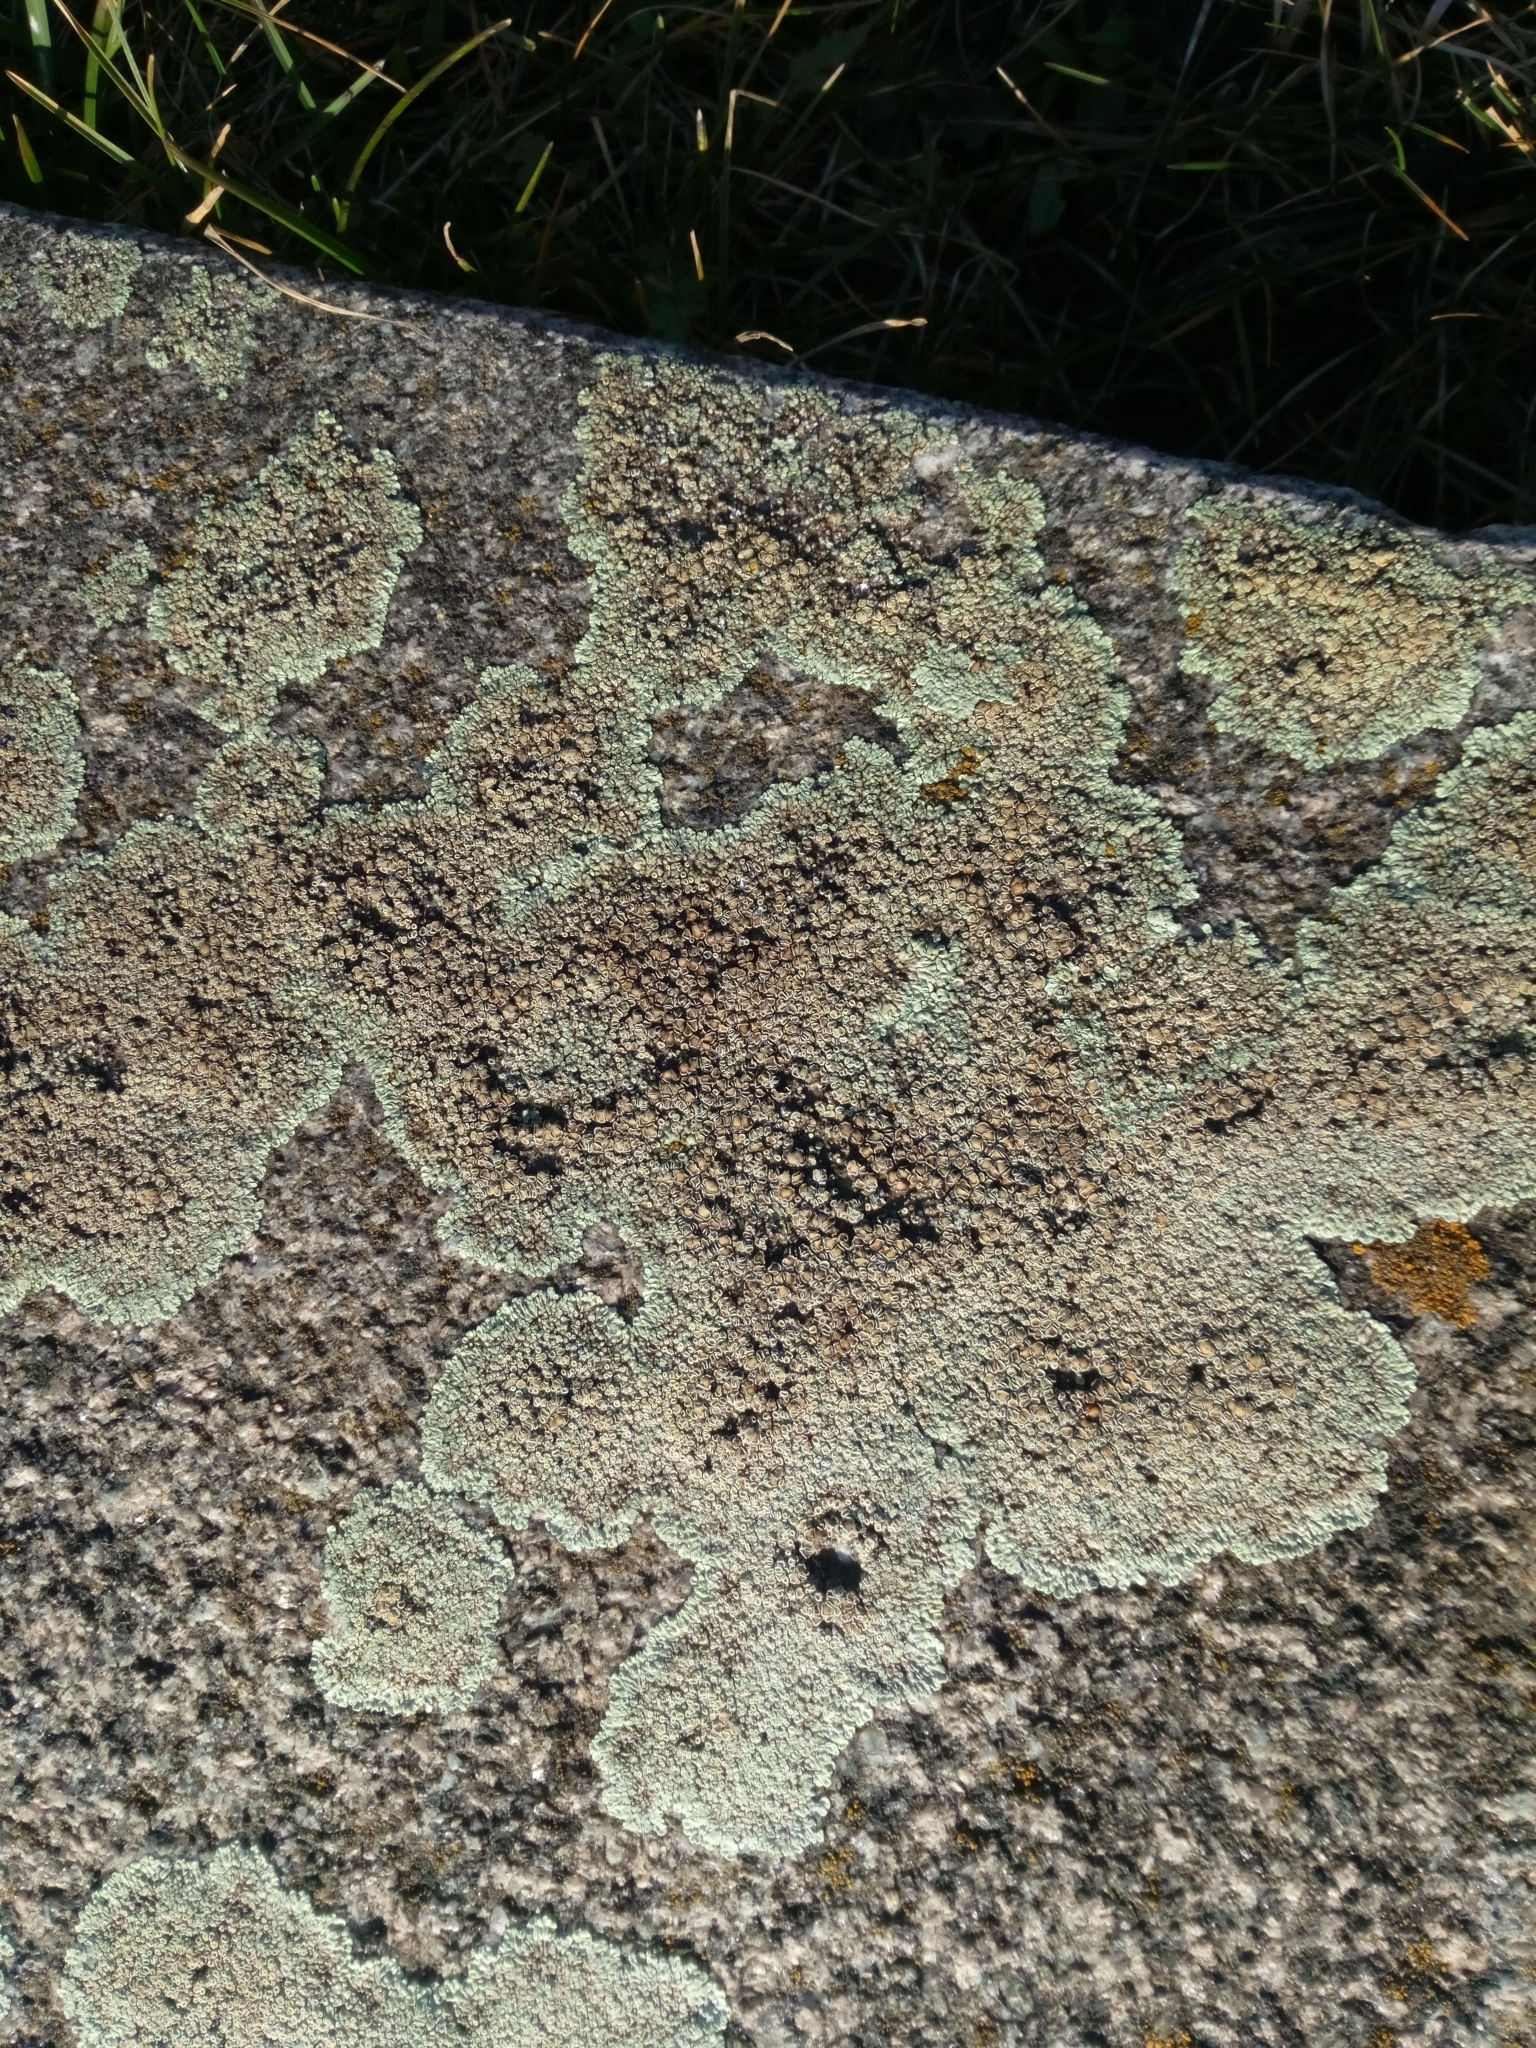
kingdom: Fungi
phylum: Ascomycota
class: Lecanoromycetes
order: Lecanorales
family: Lecanoraceae
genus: Protoparmeliopsis
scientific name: Protoparmeliopsis muralis
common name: Stonewall rim lichen
